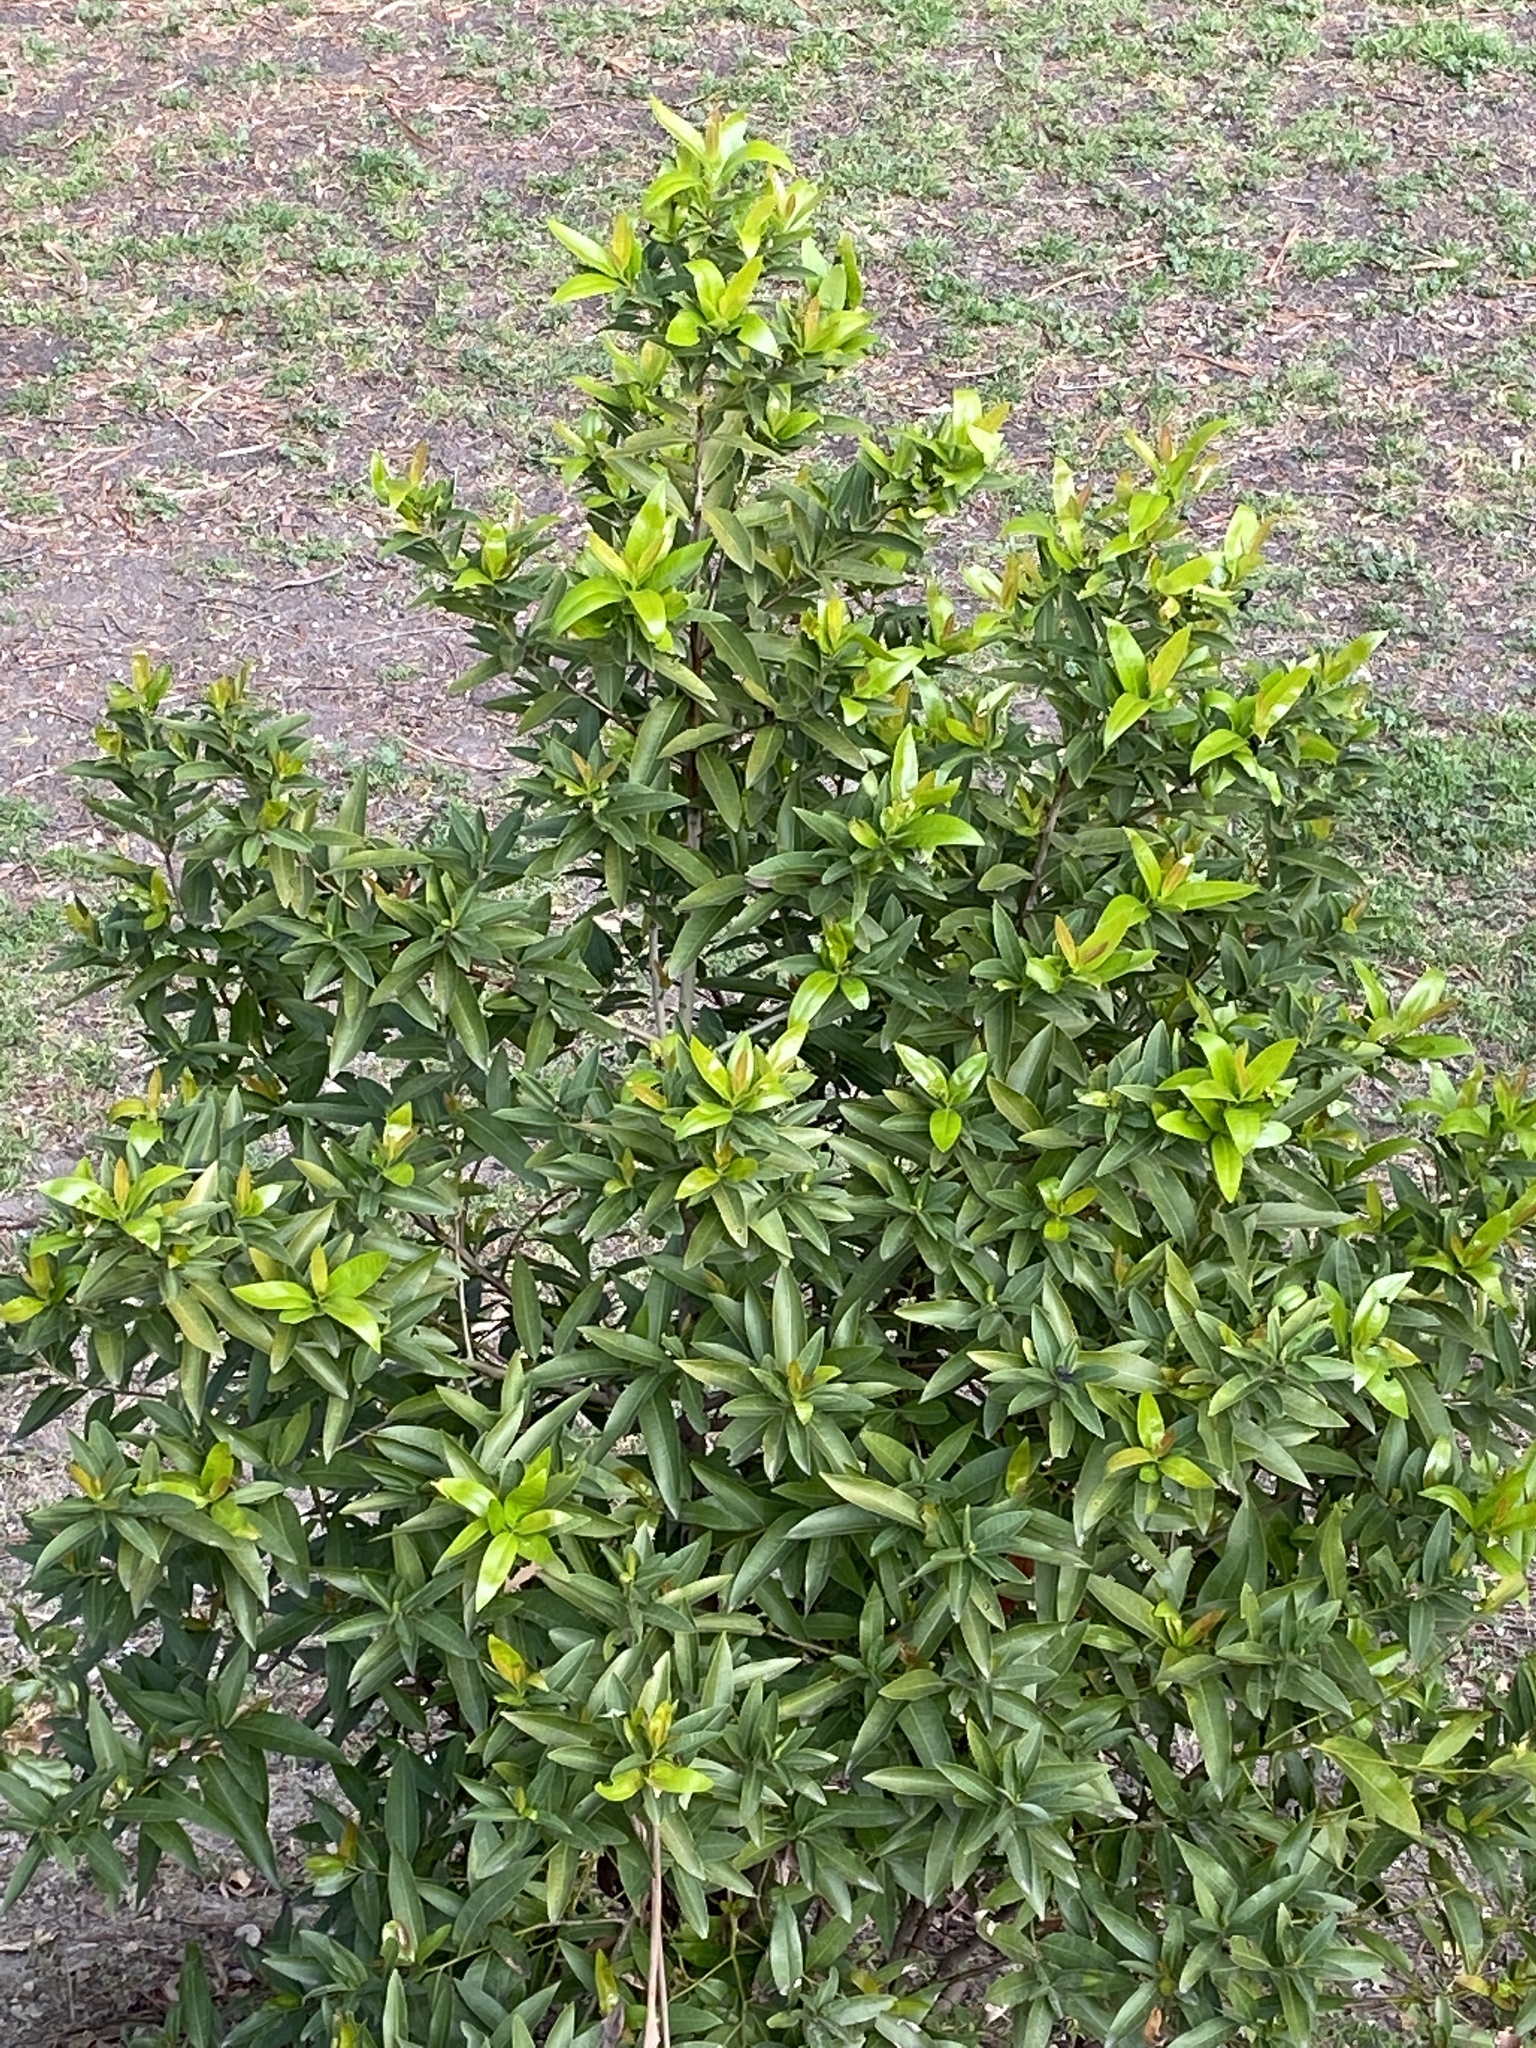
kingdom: Plantae
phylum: Tracheophyta
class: Magnoliopsida
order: Laurales
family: Lauraceae
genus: Umbellularia
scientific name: Umbellularia californica
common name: California bay
